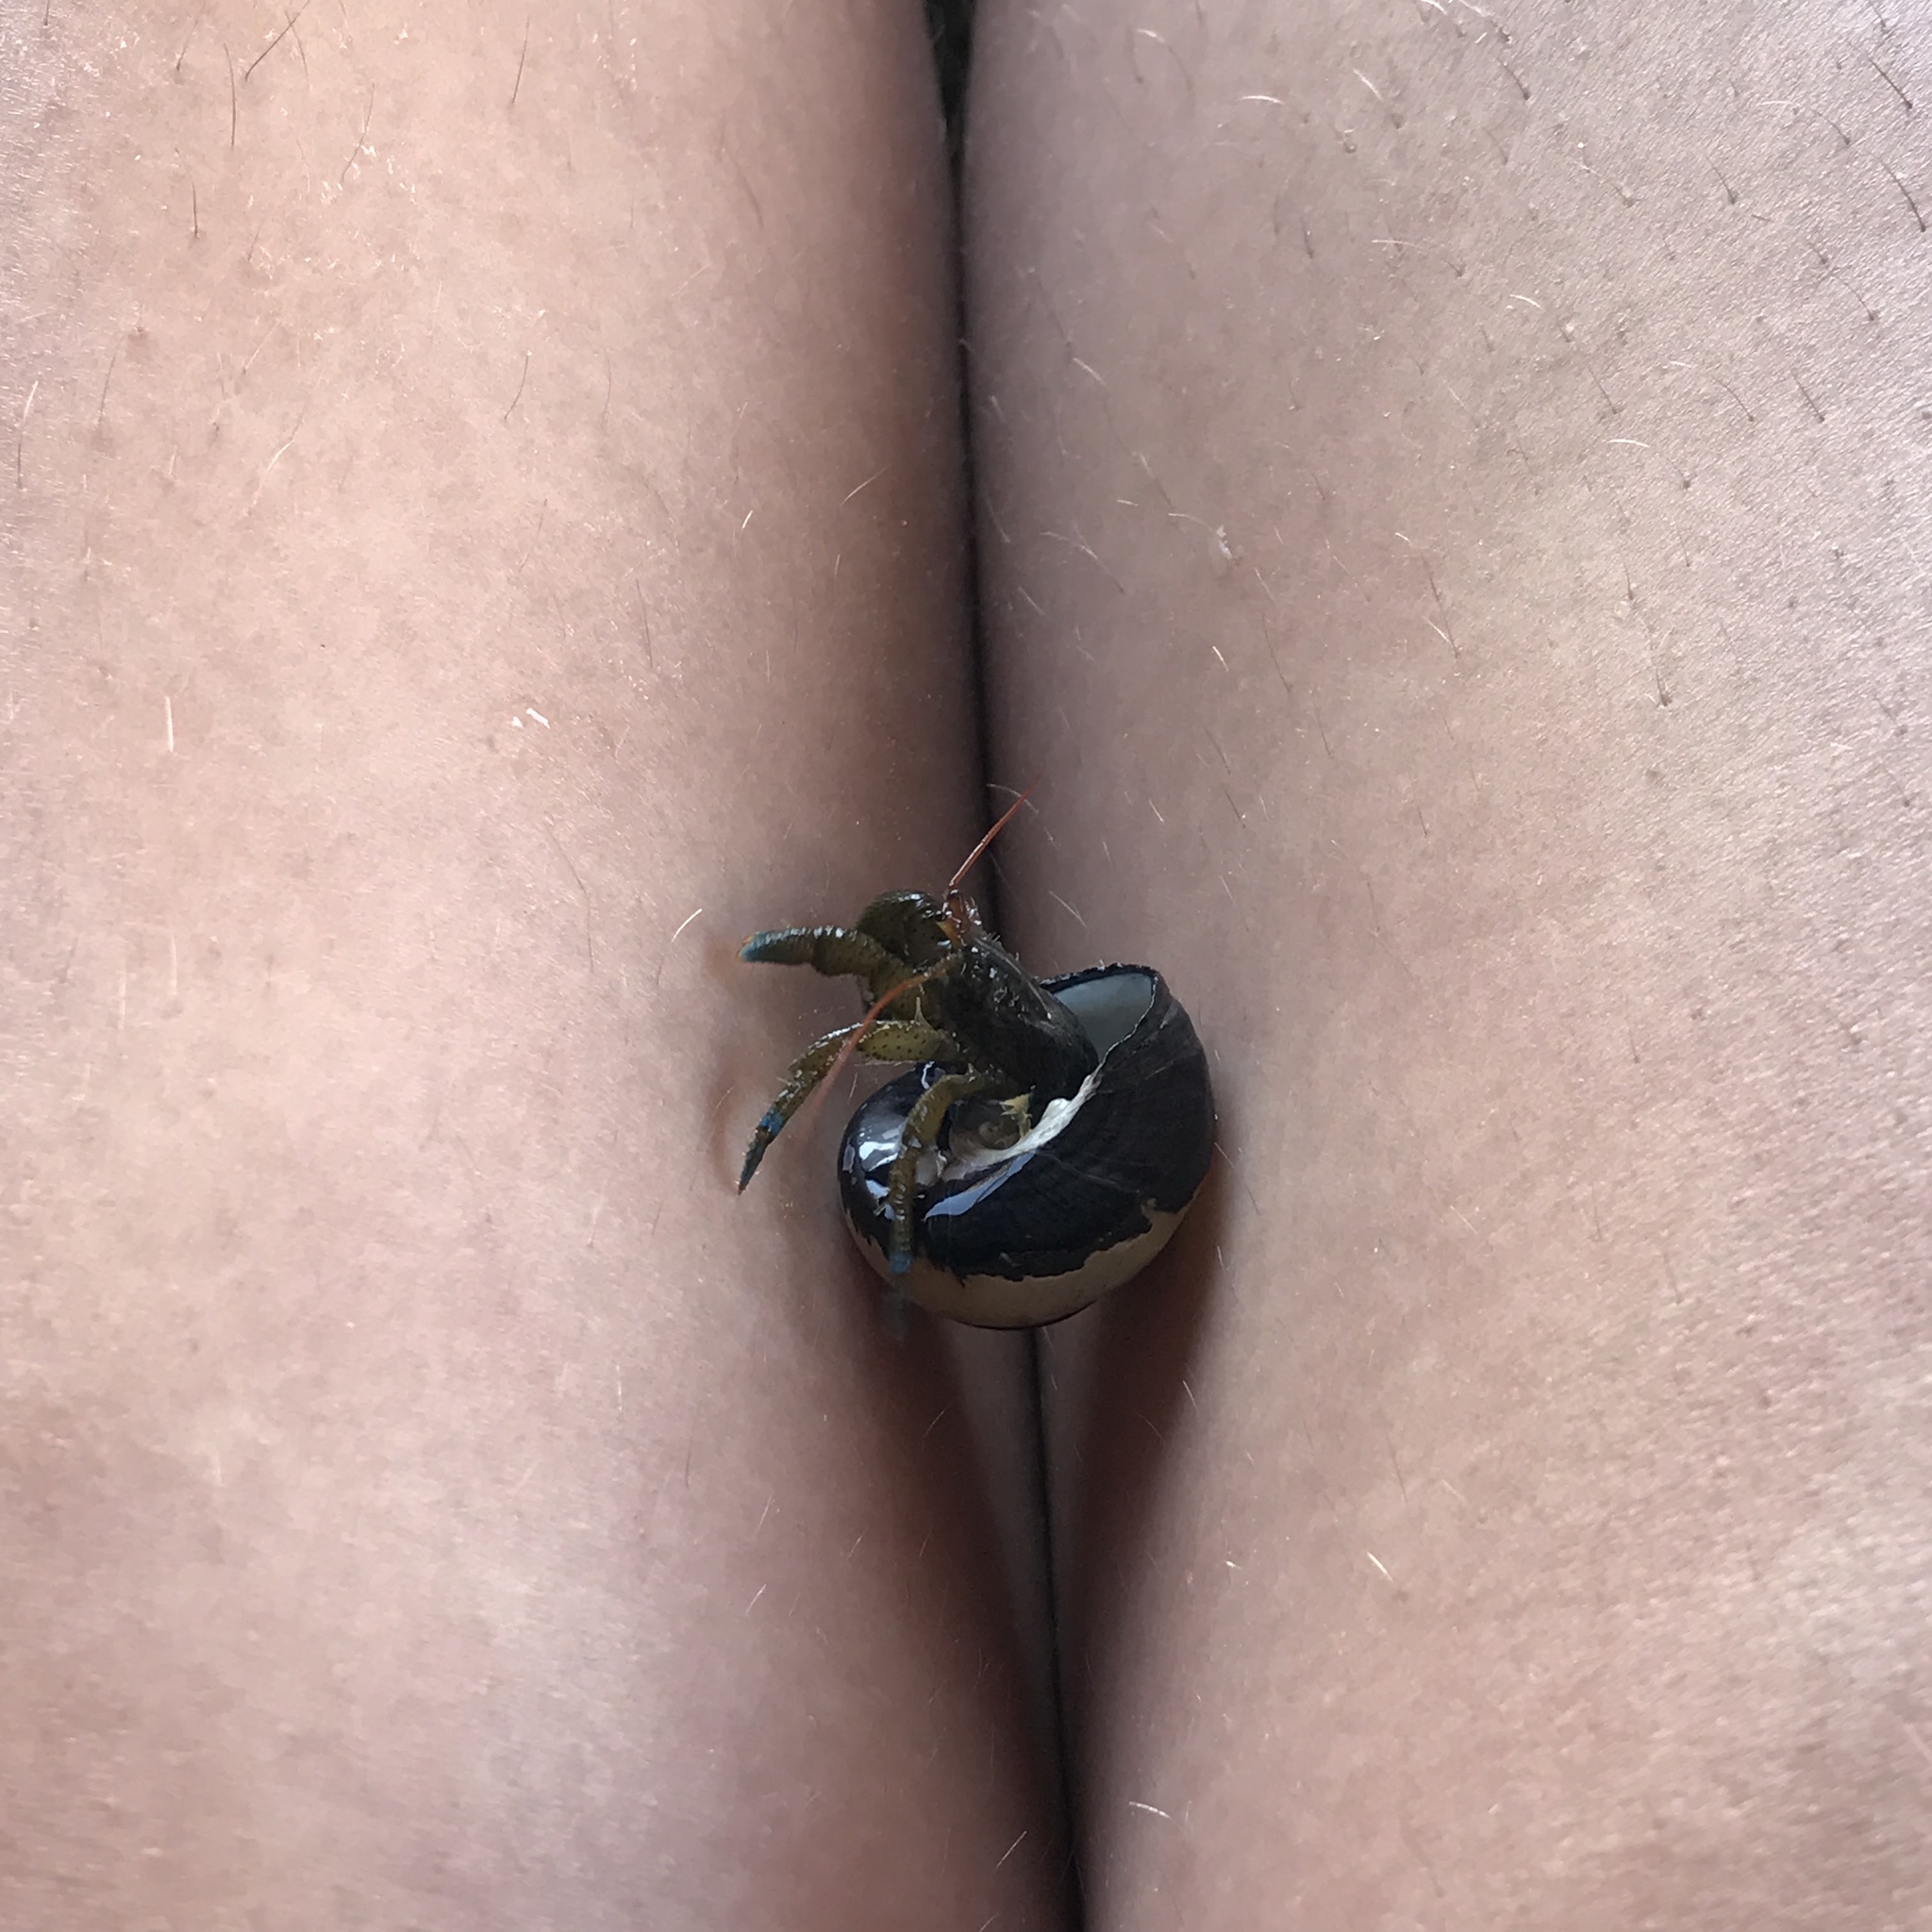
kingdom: Animalia
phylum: Arthropoda
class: Malacostraca
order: Decapoda
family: Paguridae
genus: Pagurus
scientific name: Pagurus samuelis
